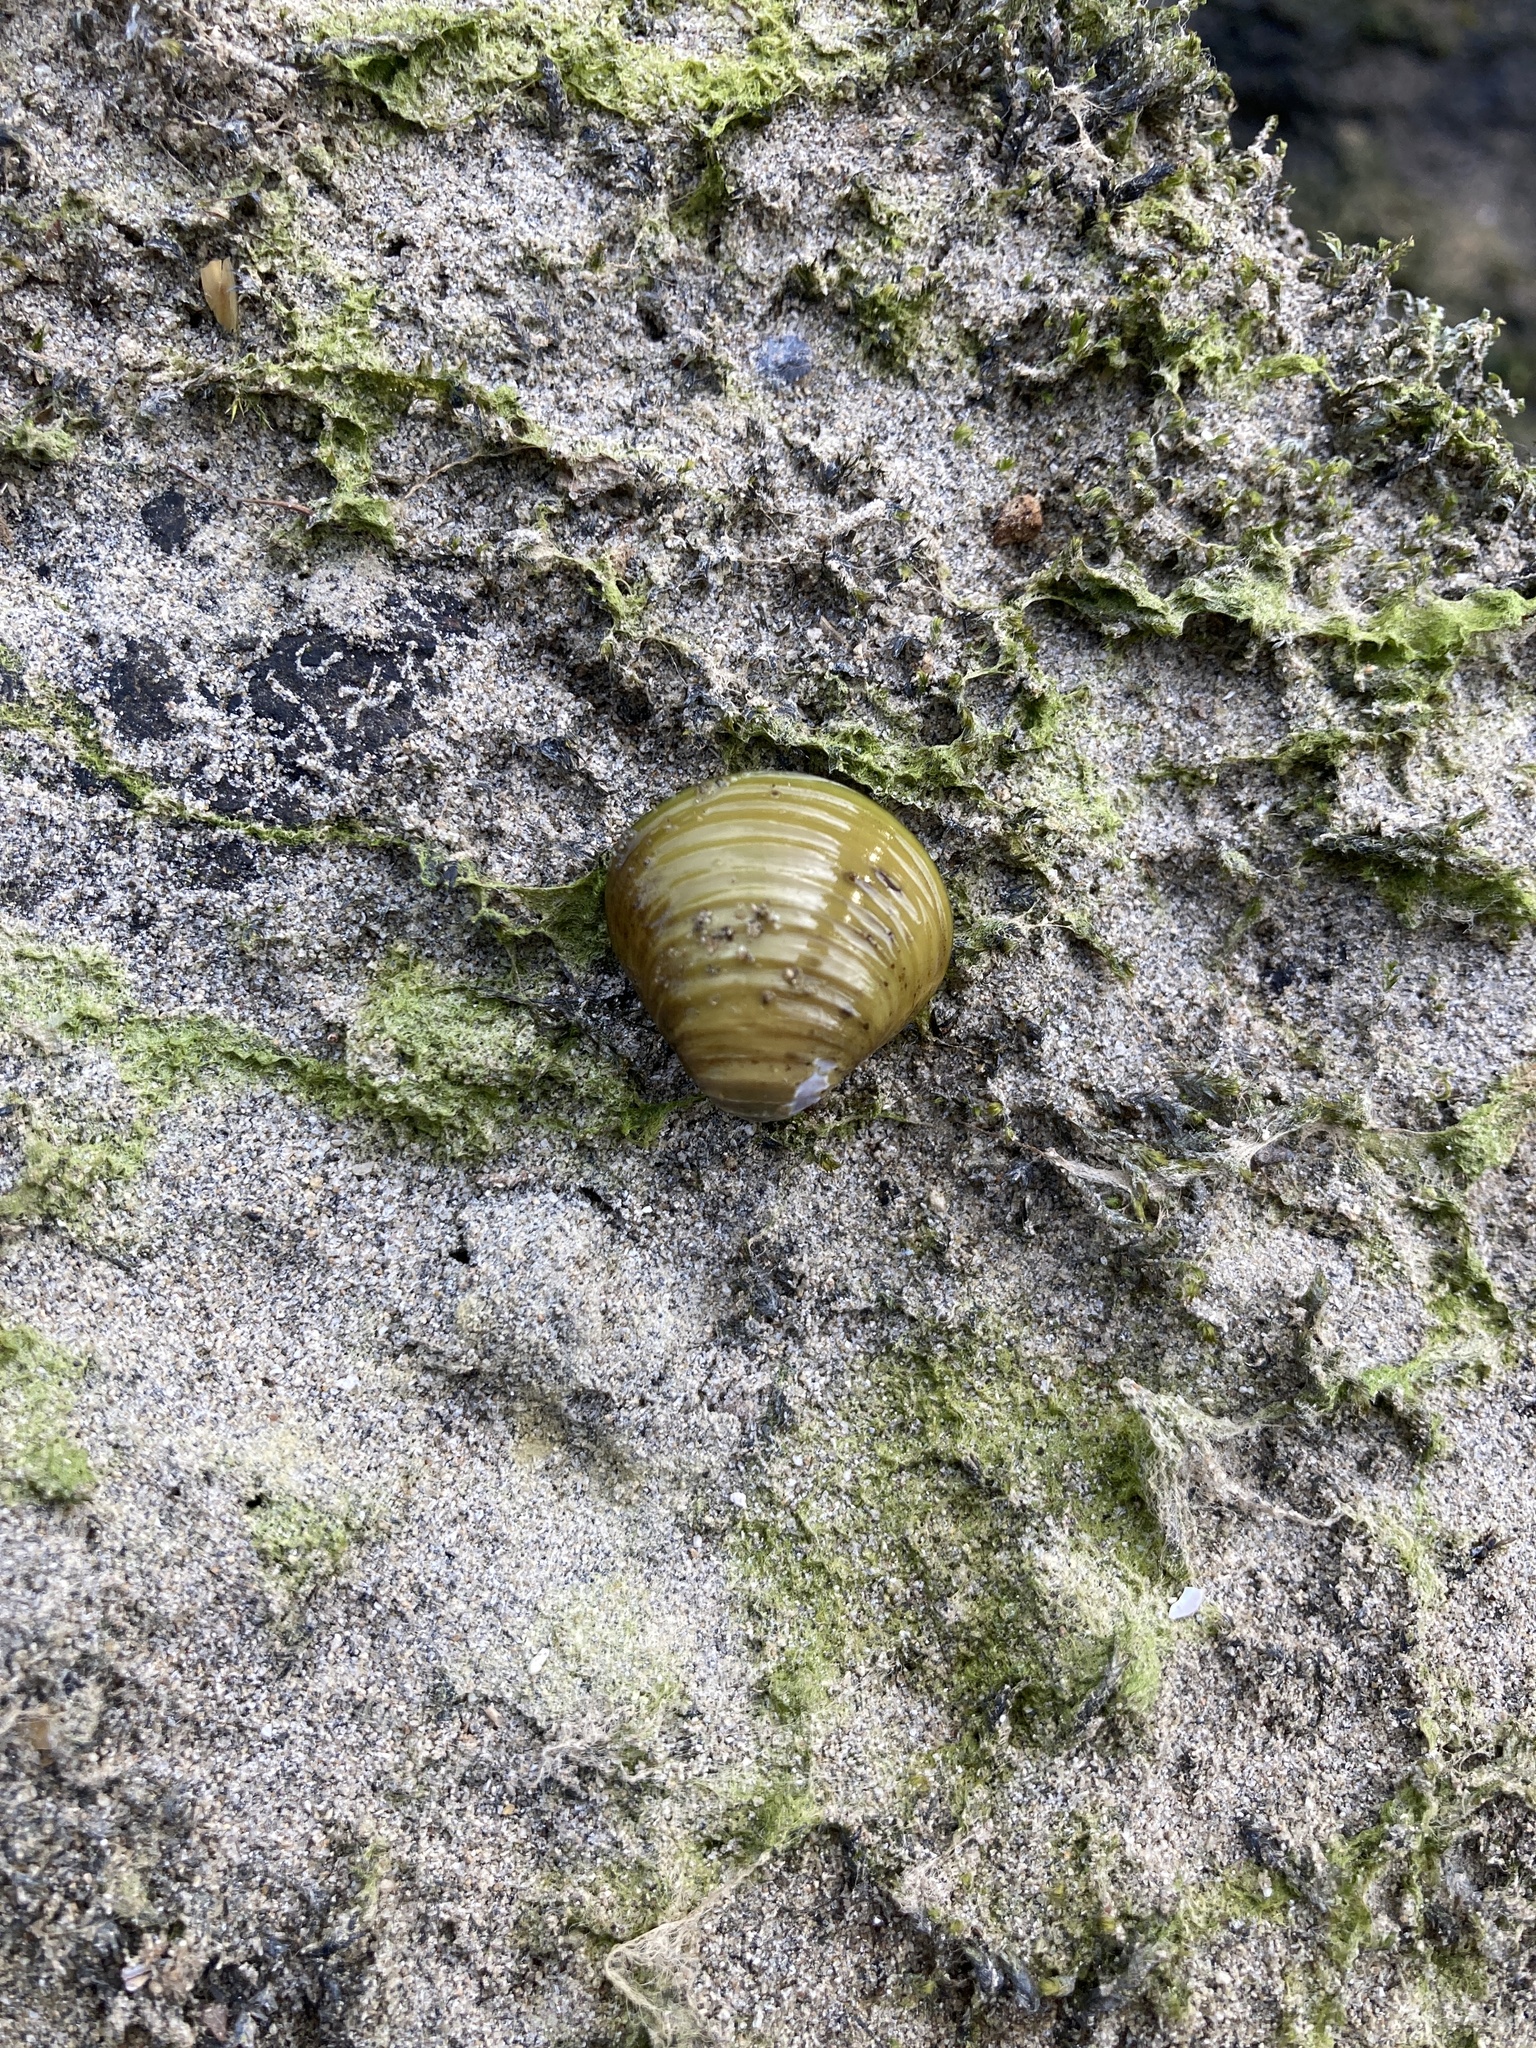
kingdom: Animalia
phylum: Mollusca
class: Bivalvia
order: Venerida
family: Cyrenidae
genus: Corbicula
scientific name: Corbicula fluminea
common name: Asian clam
